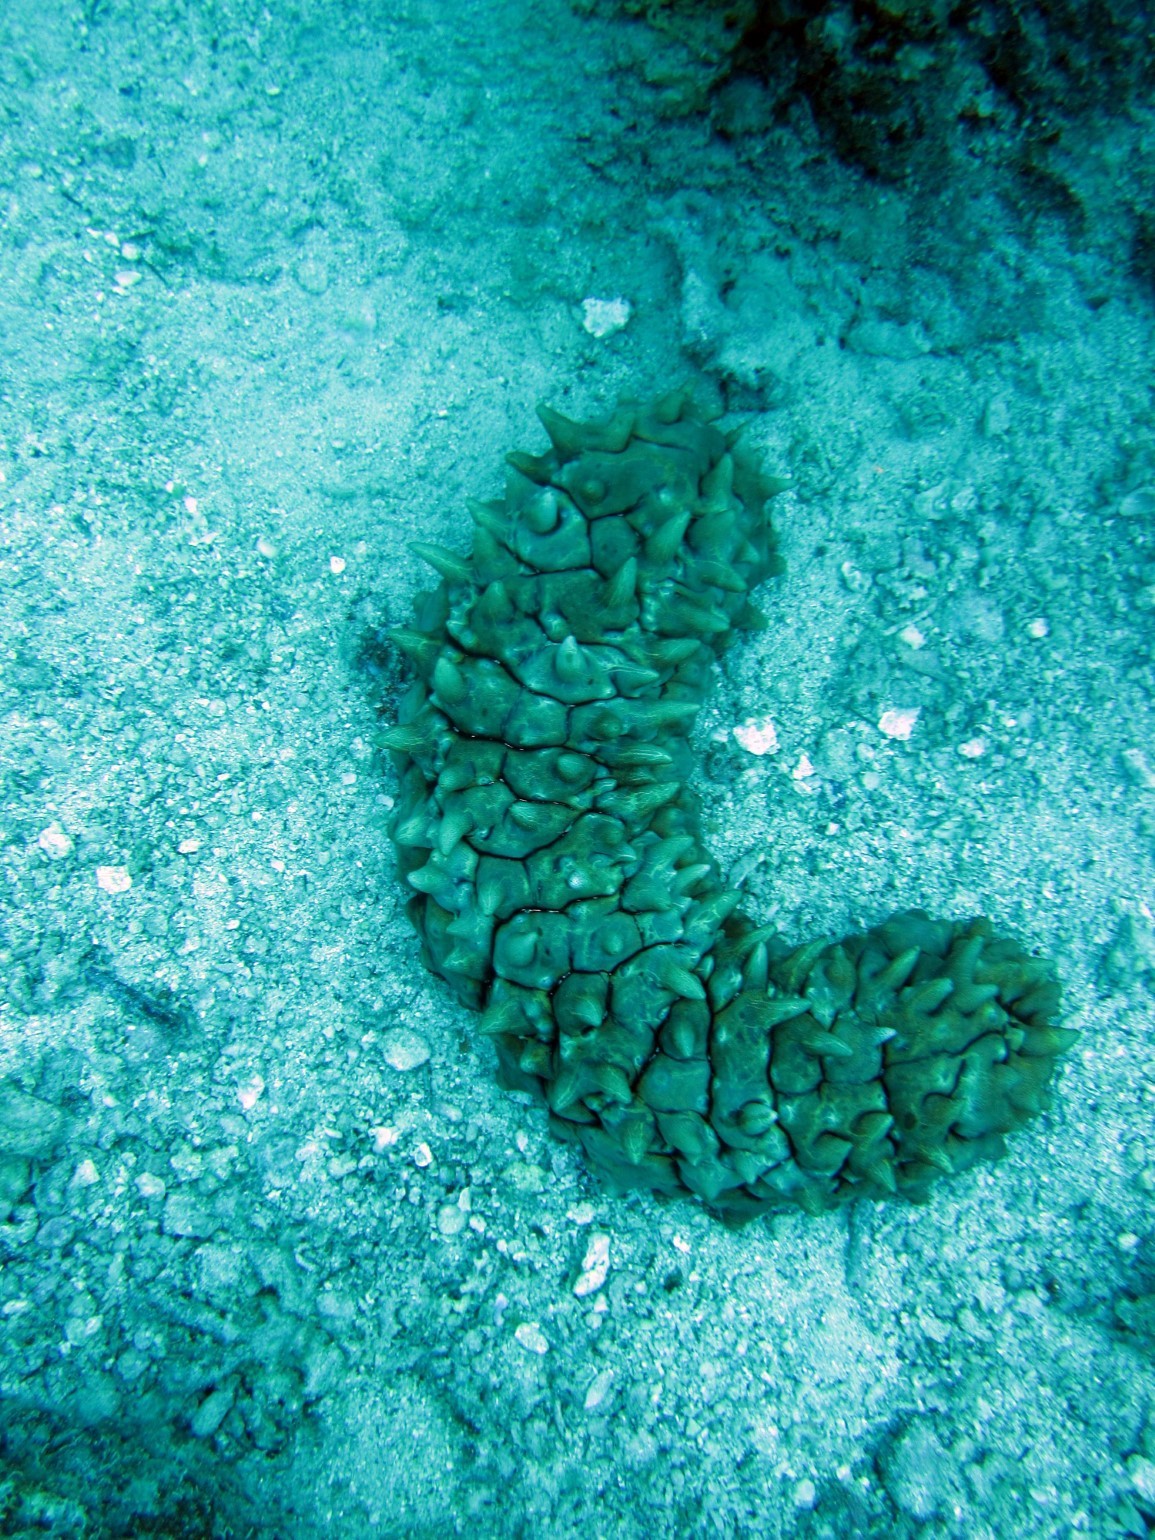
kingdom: Animalia
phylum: Echinodermata
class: Holothuroidea
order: Synallactida
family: Stichopodidae
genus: Thelenota
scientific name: Thelenota ananas
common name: Prickly redfish
